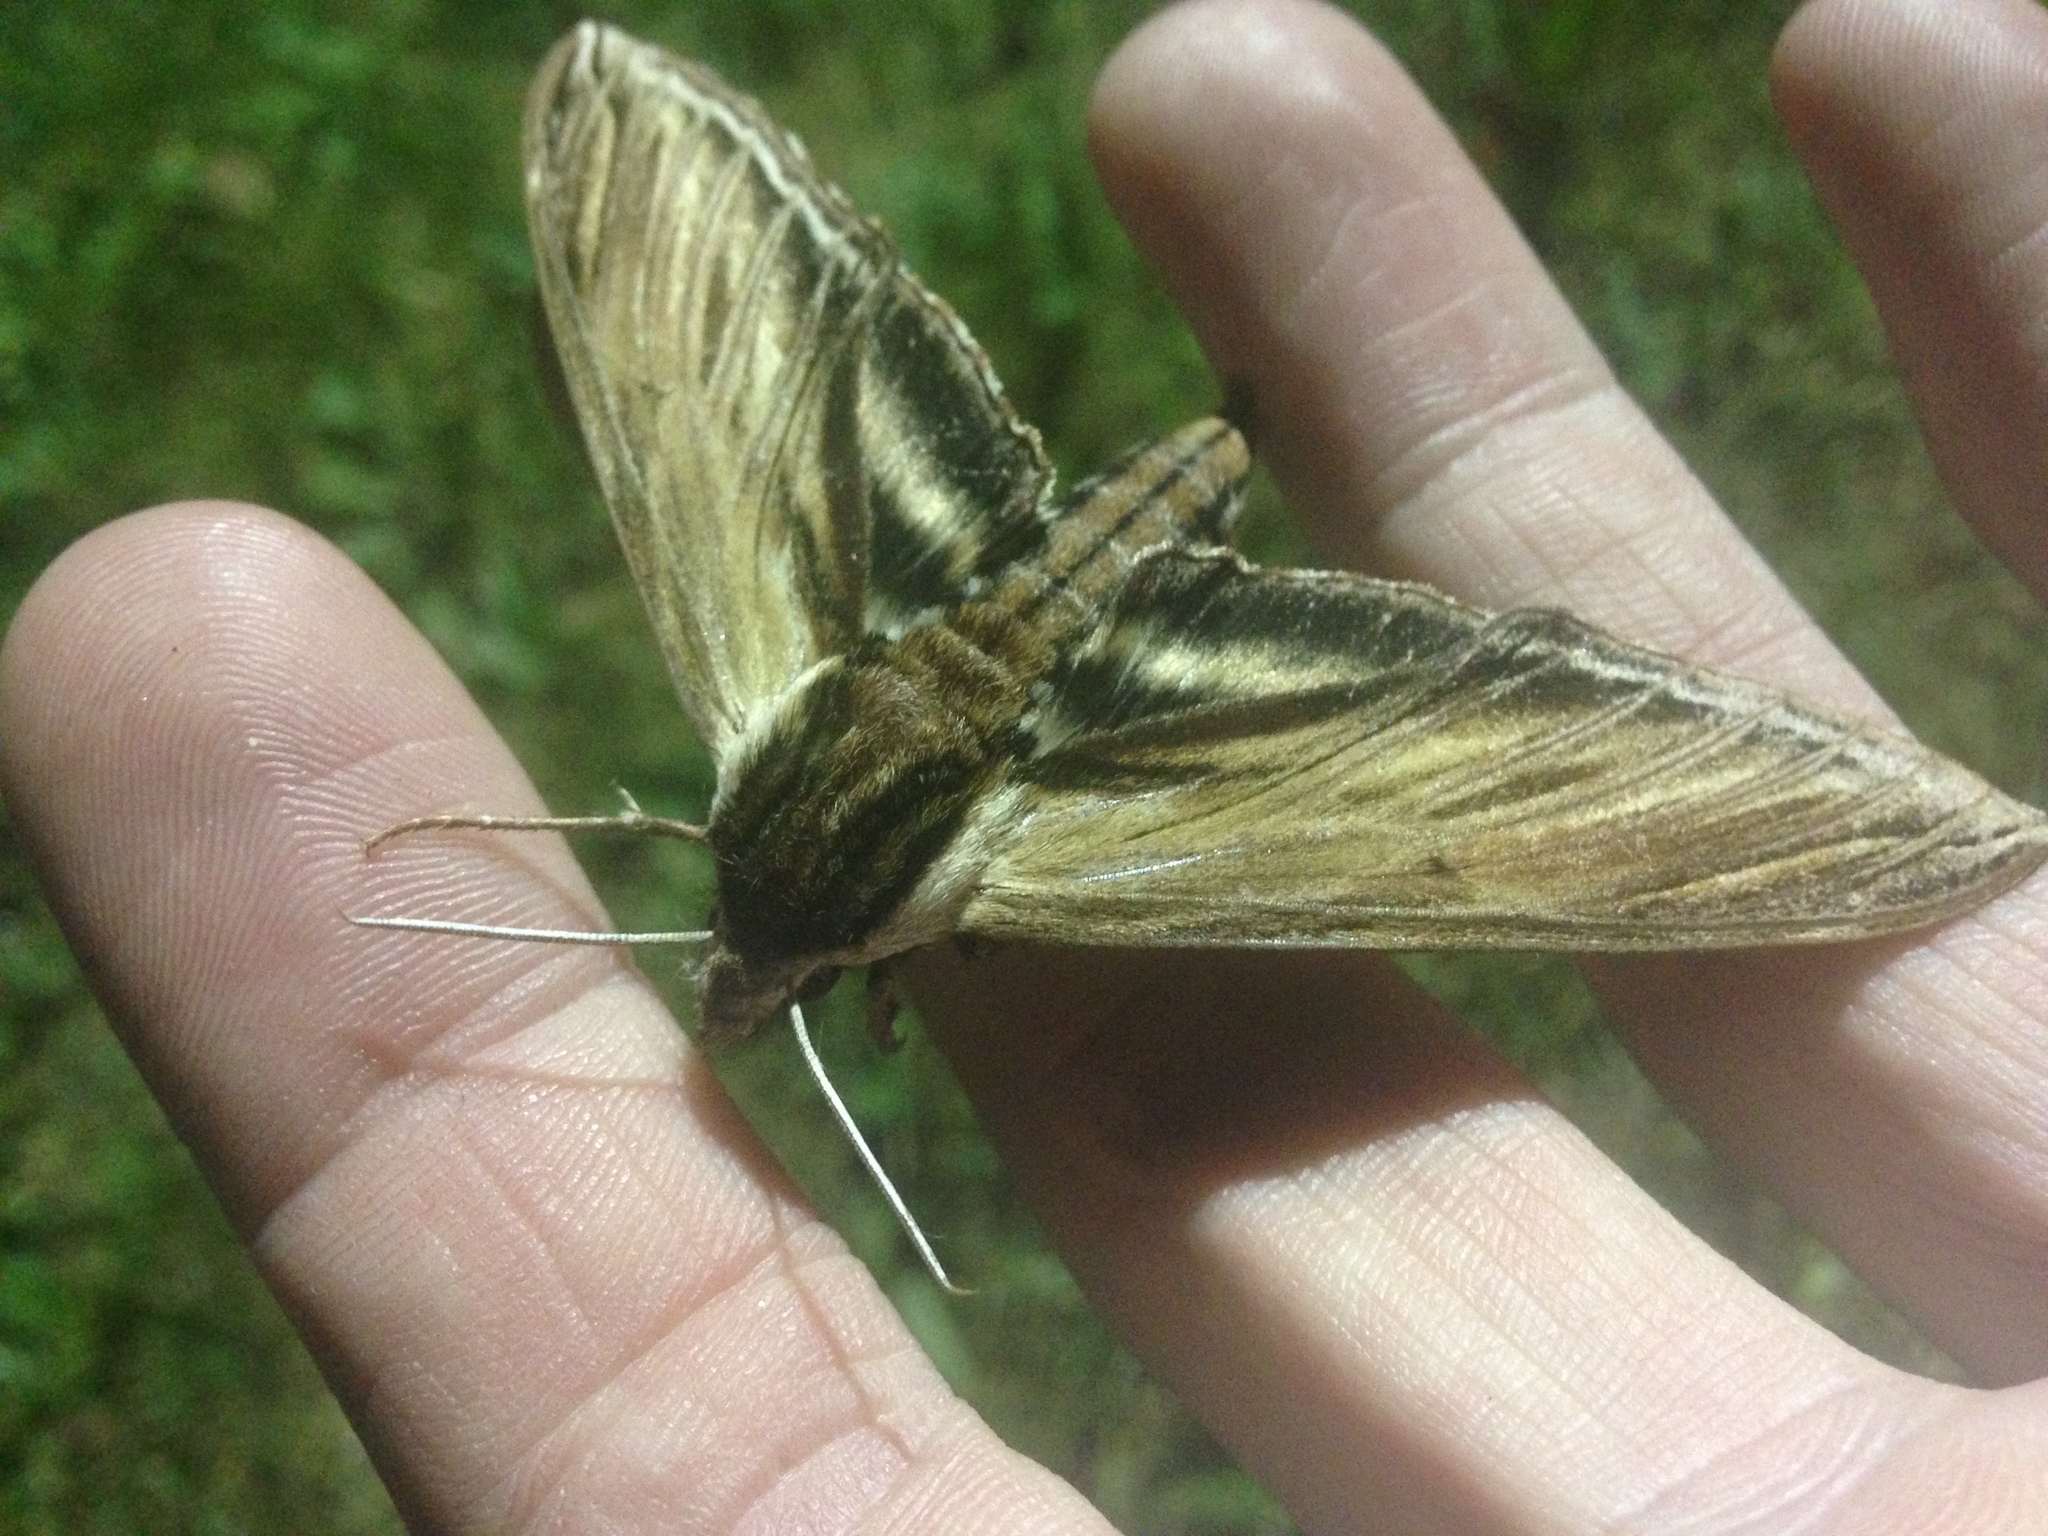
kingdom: Animalia
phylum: Arthropoda
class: Insecta
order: Lepidoptera
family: Sphingidae
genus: Sphinx
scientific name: Sphinx kalmiae
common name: Laurel sphinx
